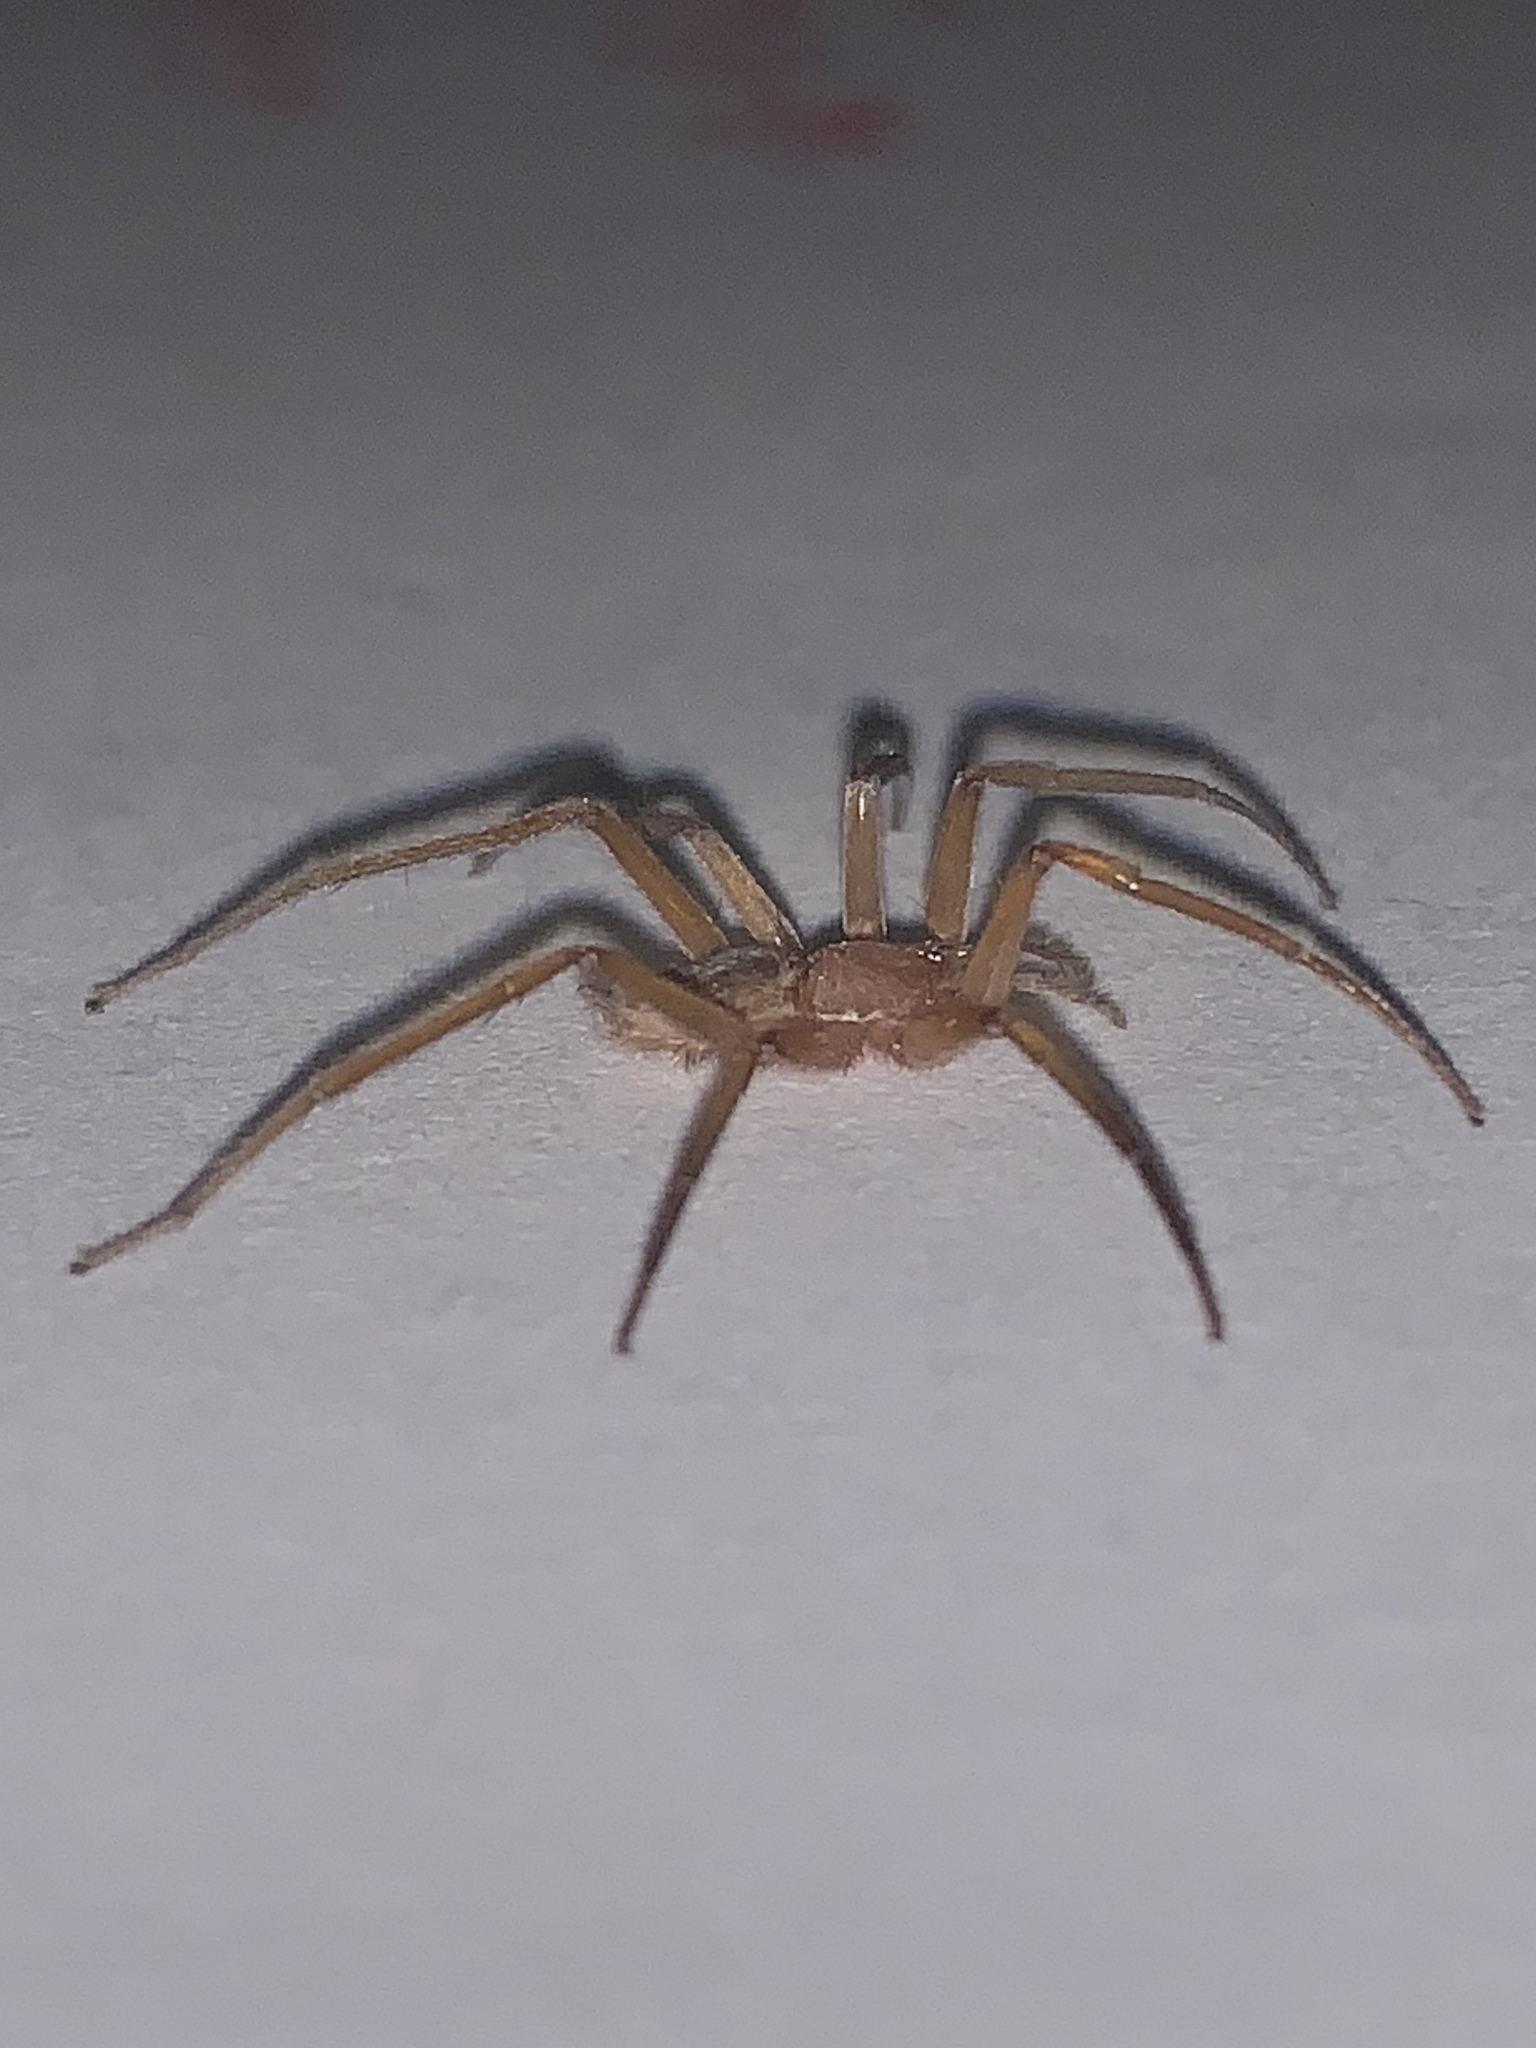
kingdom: Animalia
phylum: Arthropoda
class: Arachnida
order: Araneae
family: Prodidomidae
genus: Prodidomus
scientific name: Prodidomus rufus
